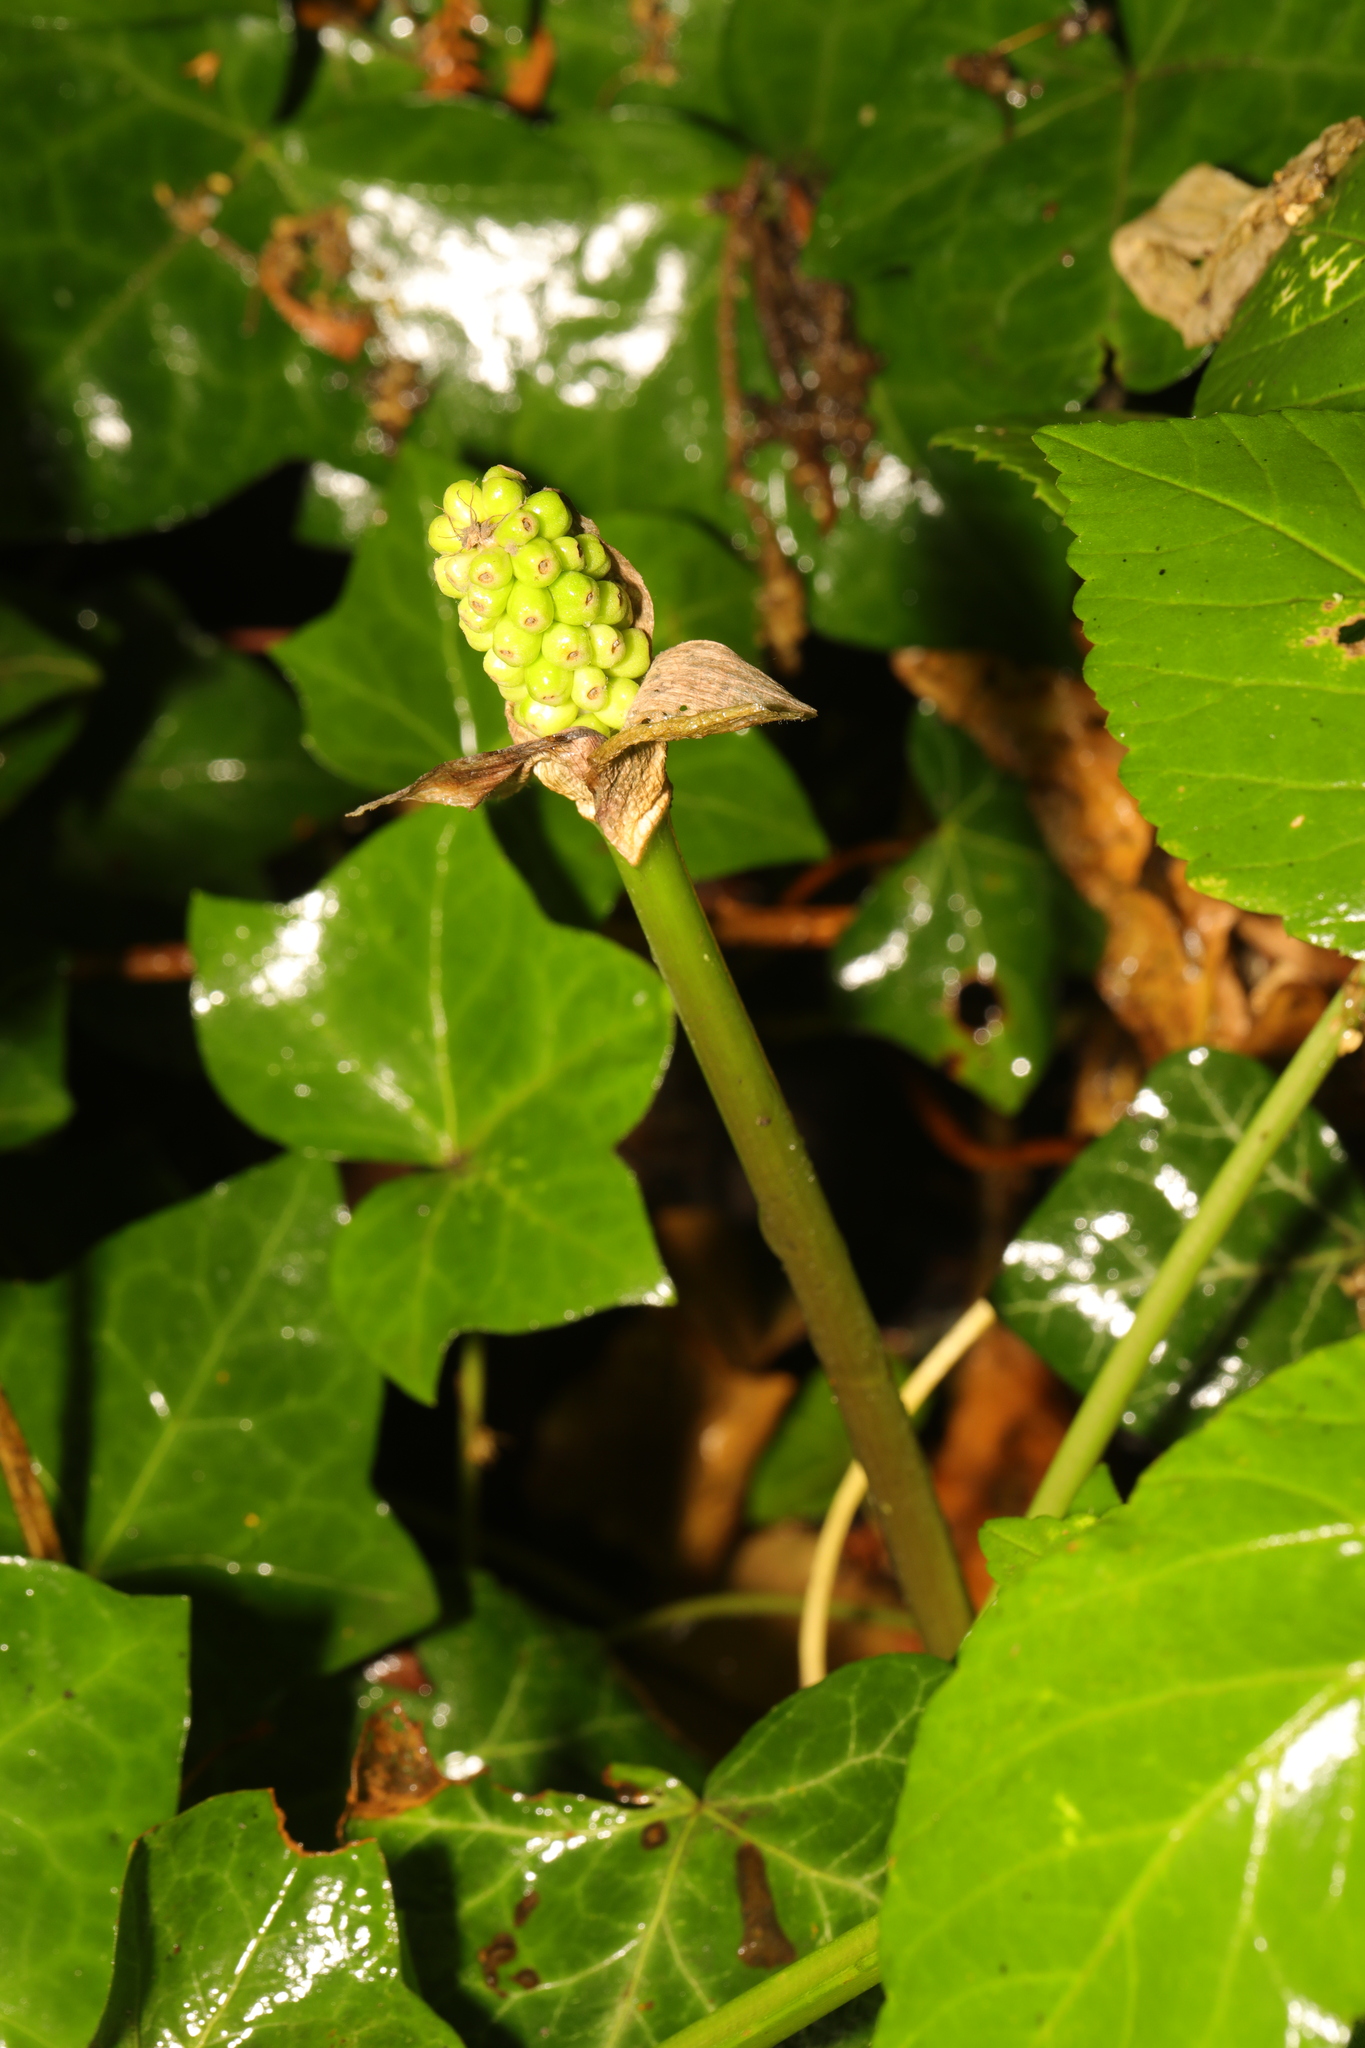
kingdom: Plantae
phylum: Tracheophyta
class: Liliopsida
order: Alismatales
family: Araceae
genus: Arum
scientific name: Arum maculatum
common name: Lords-and-ladies
